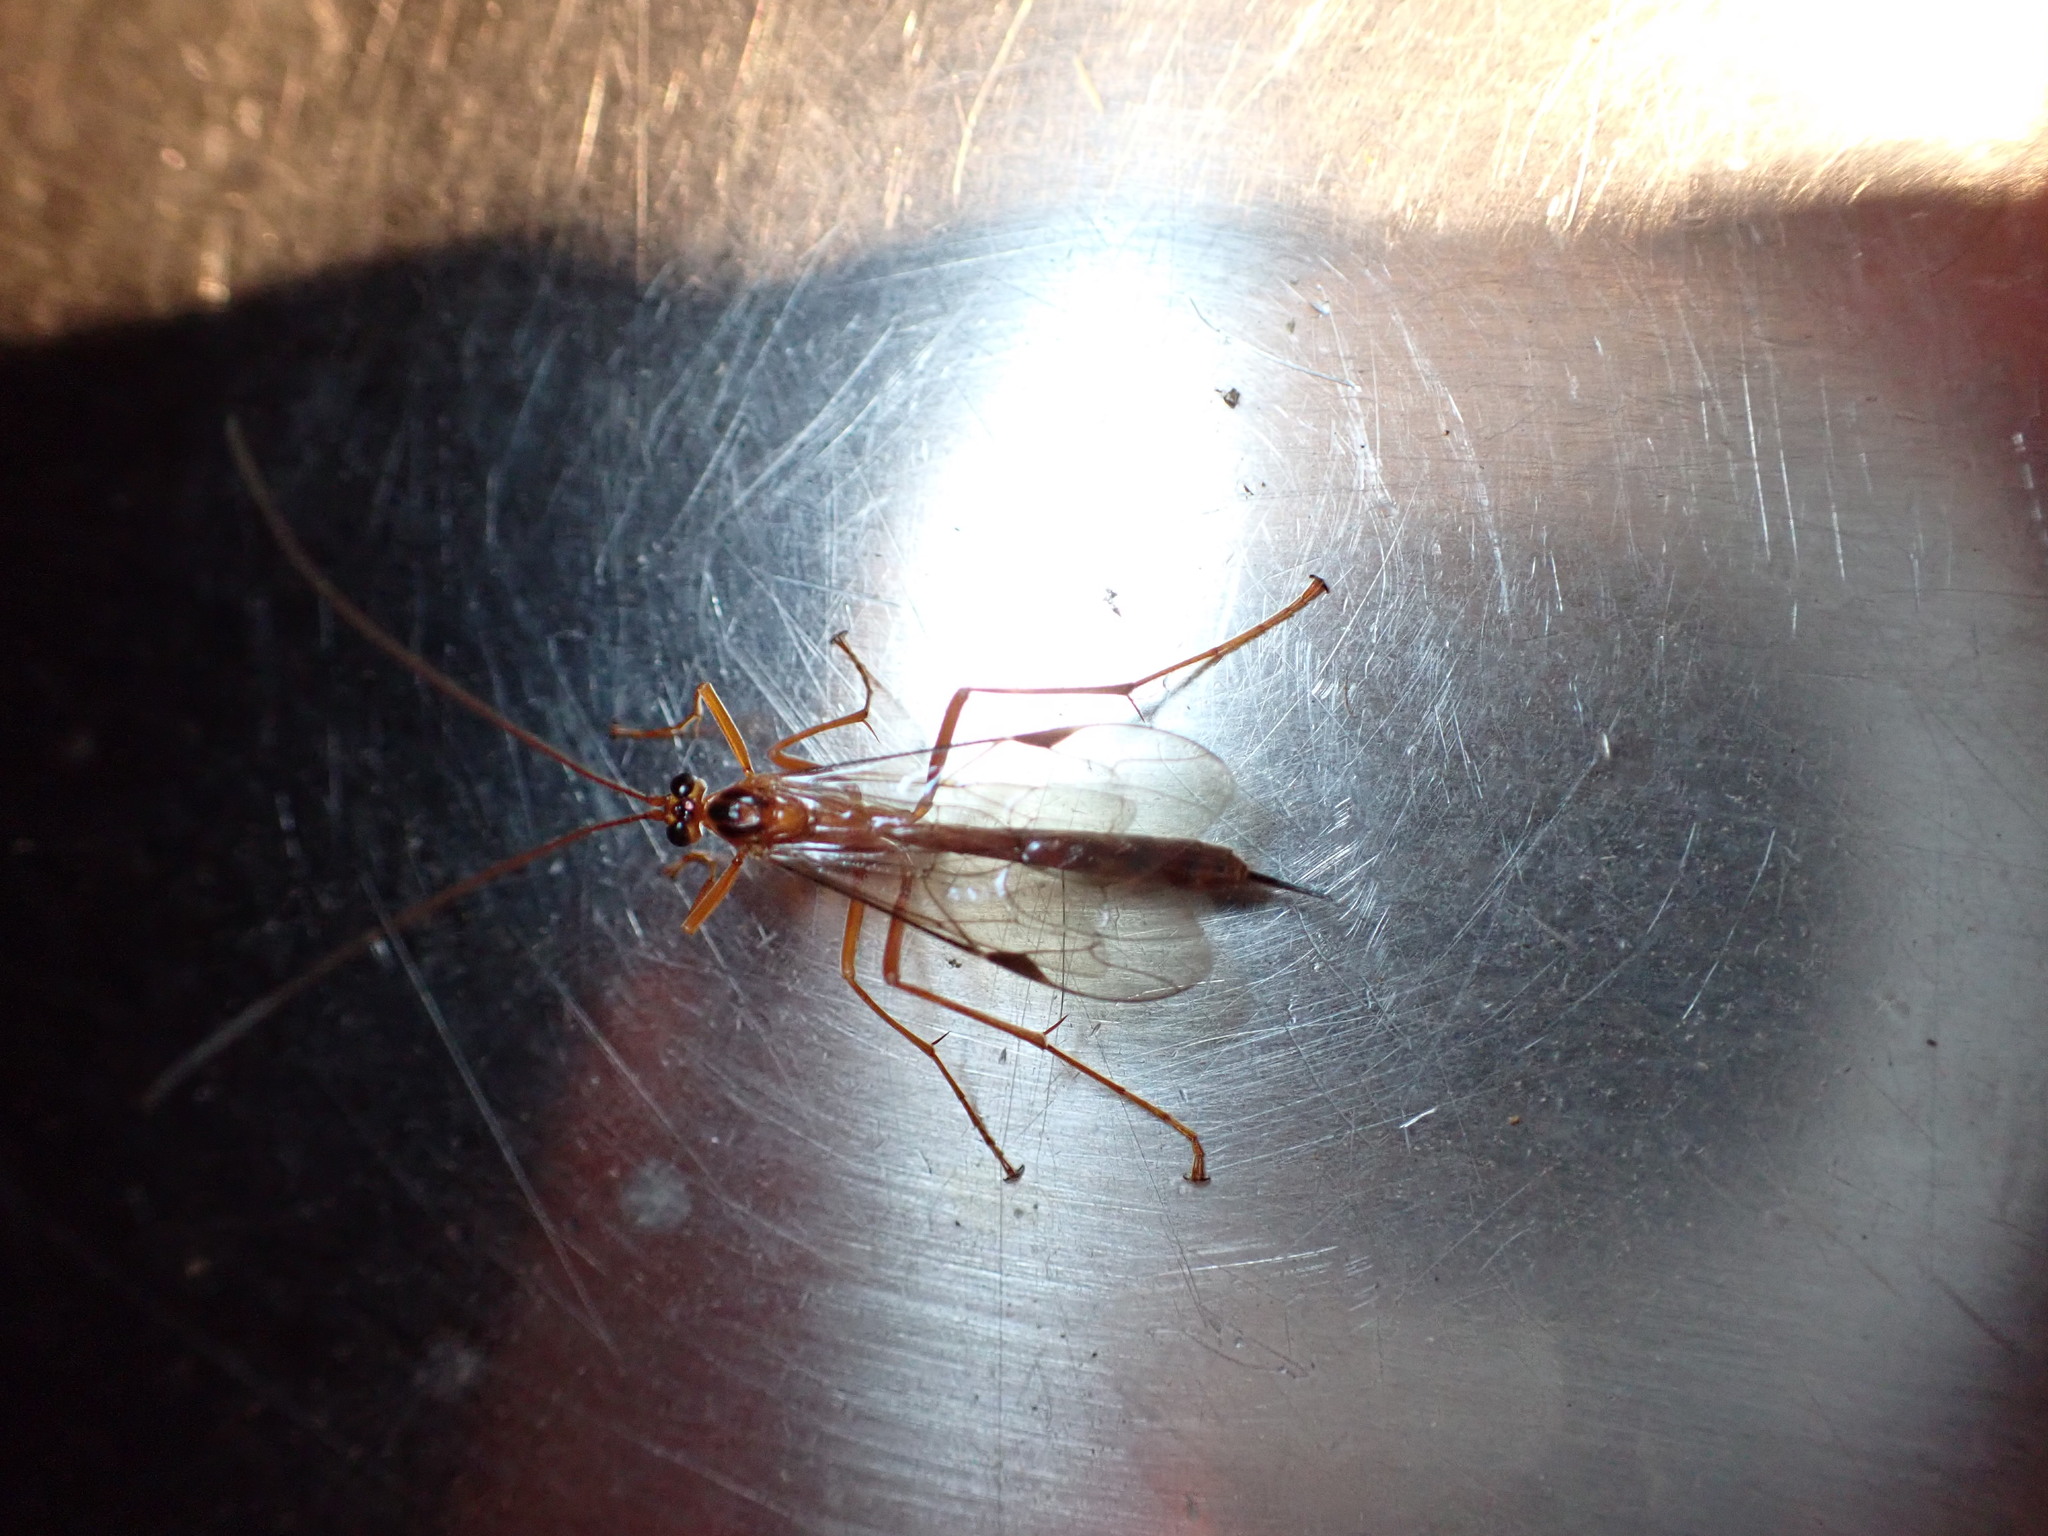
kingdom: Animalia
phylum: Arthropoda
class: Insecta
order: Hymenoptera
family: Ichneumonidae
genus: Netelia
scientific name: Netelia ephippiata
